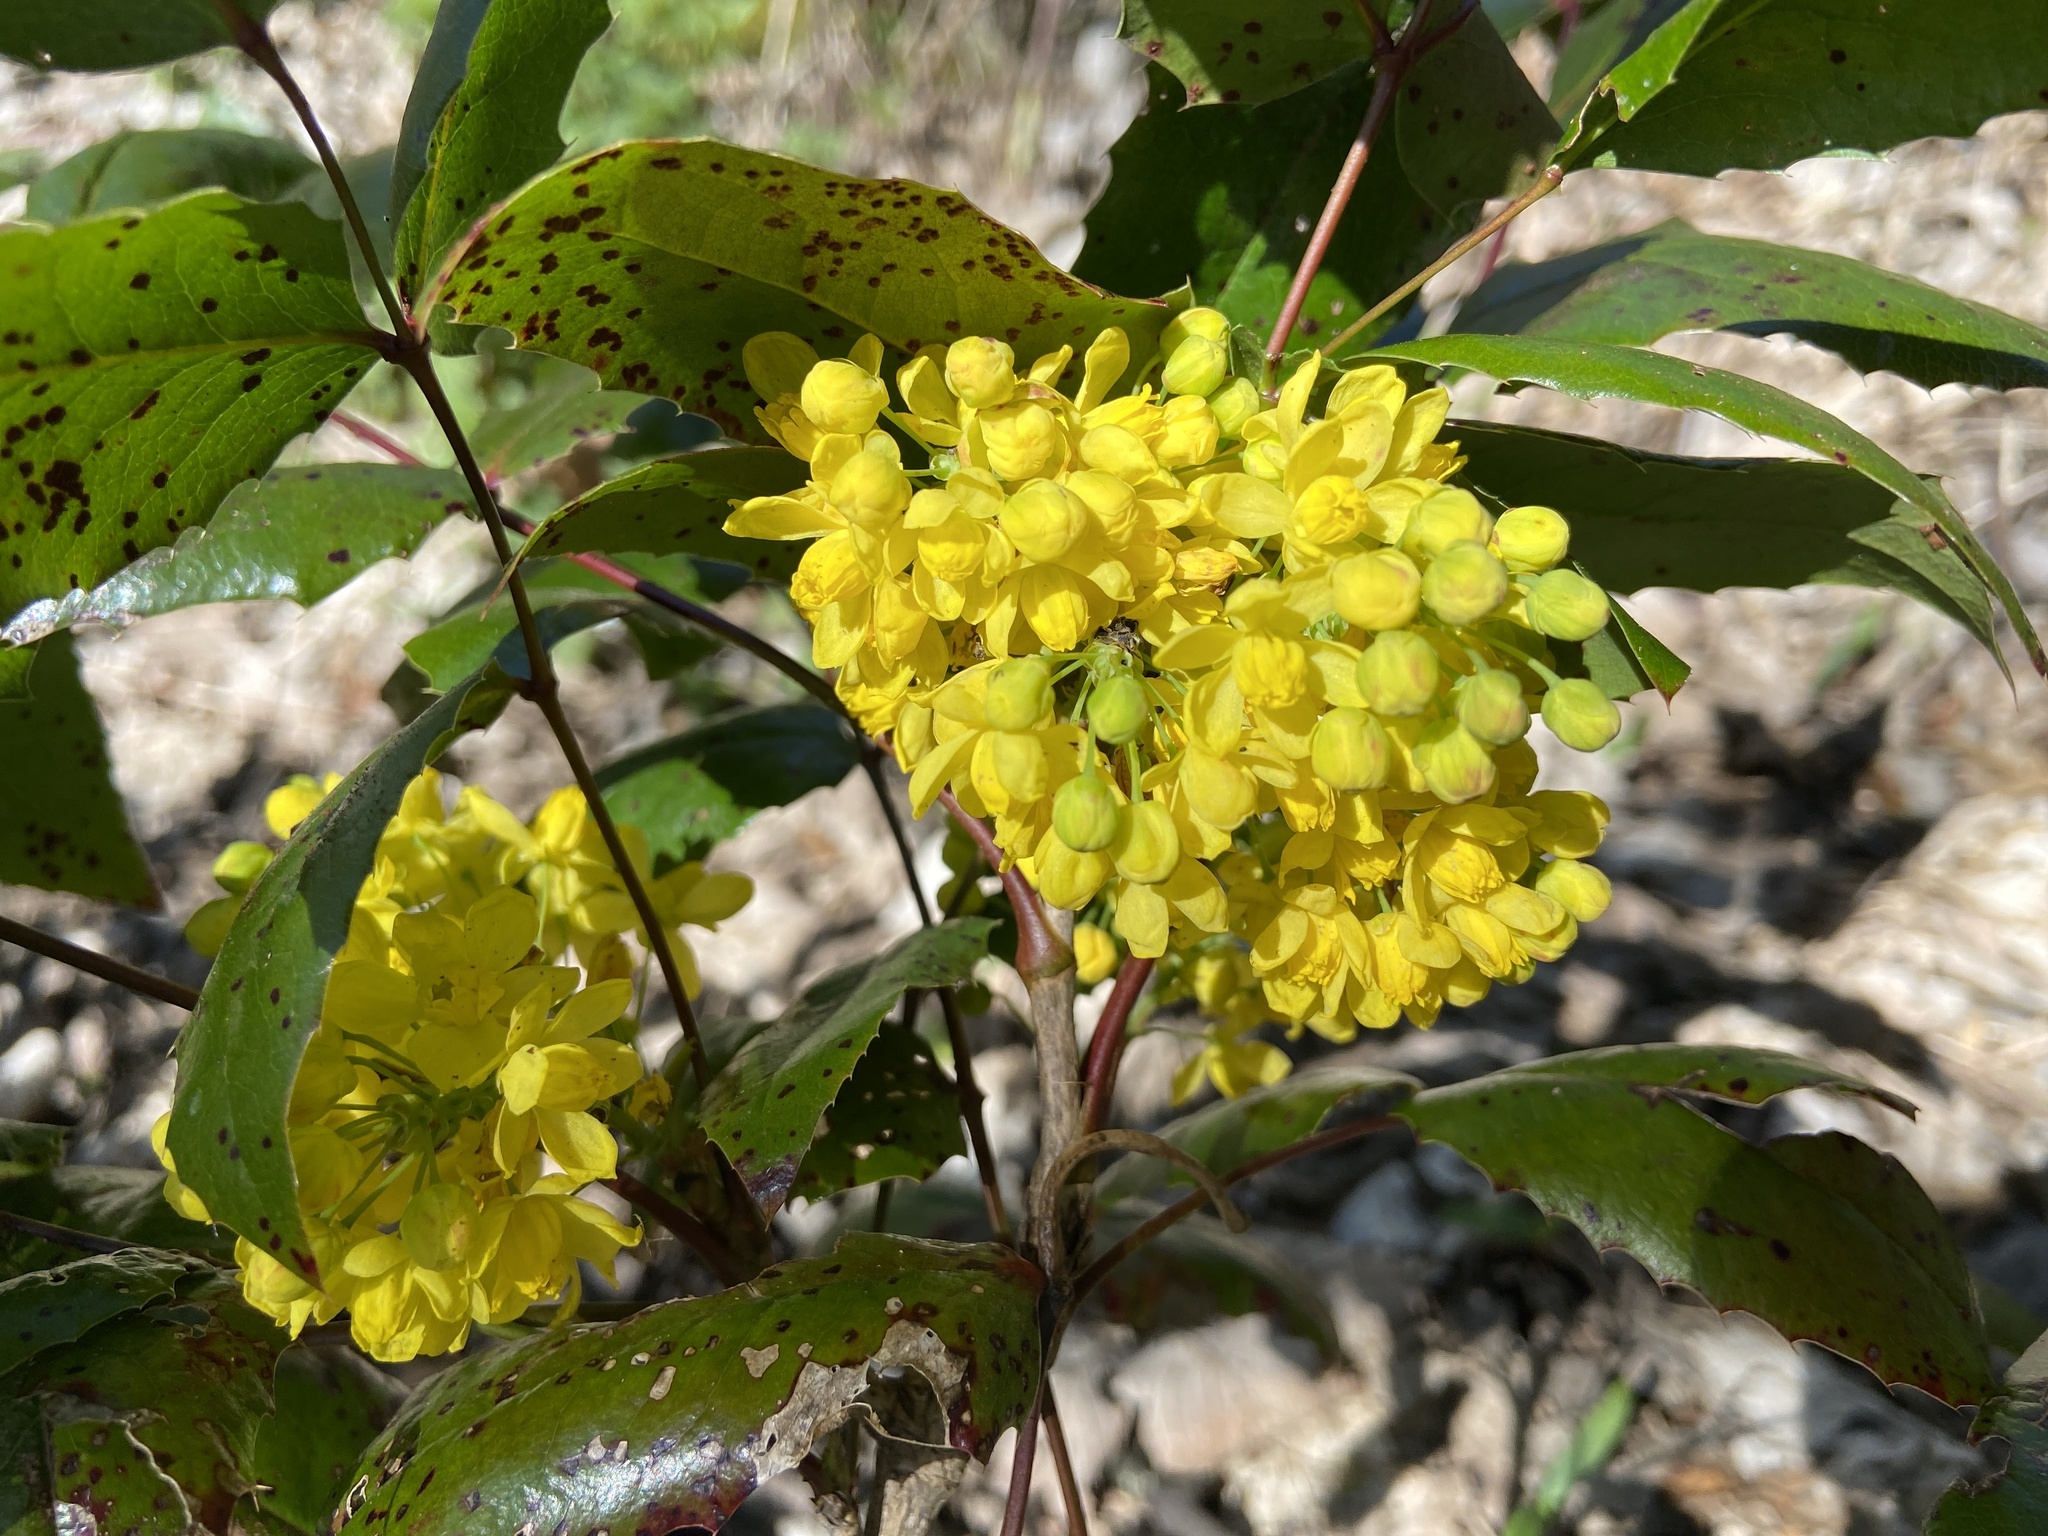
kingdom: Plantae
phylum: Tracheophyta
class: Magnoliopsida
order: Ranunculales
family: Berberidaceae
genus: Mahonia
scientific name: Mahonia aquifolium
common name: Oregon-grape
